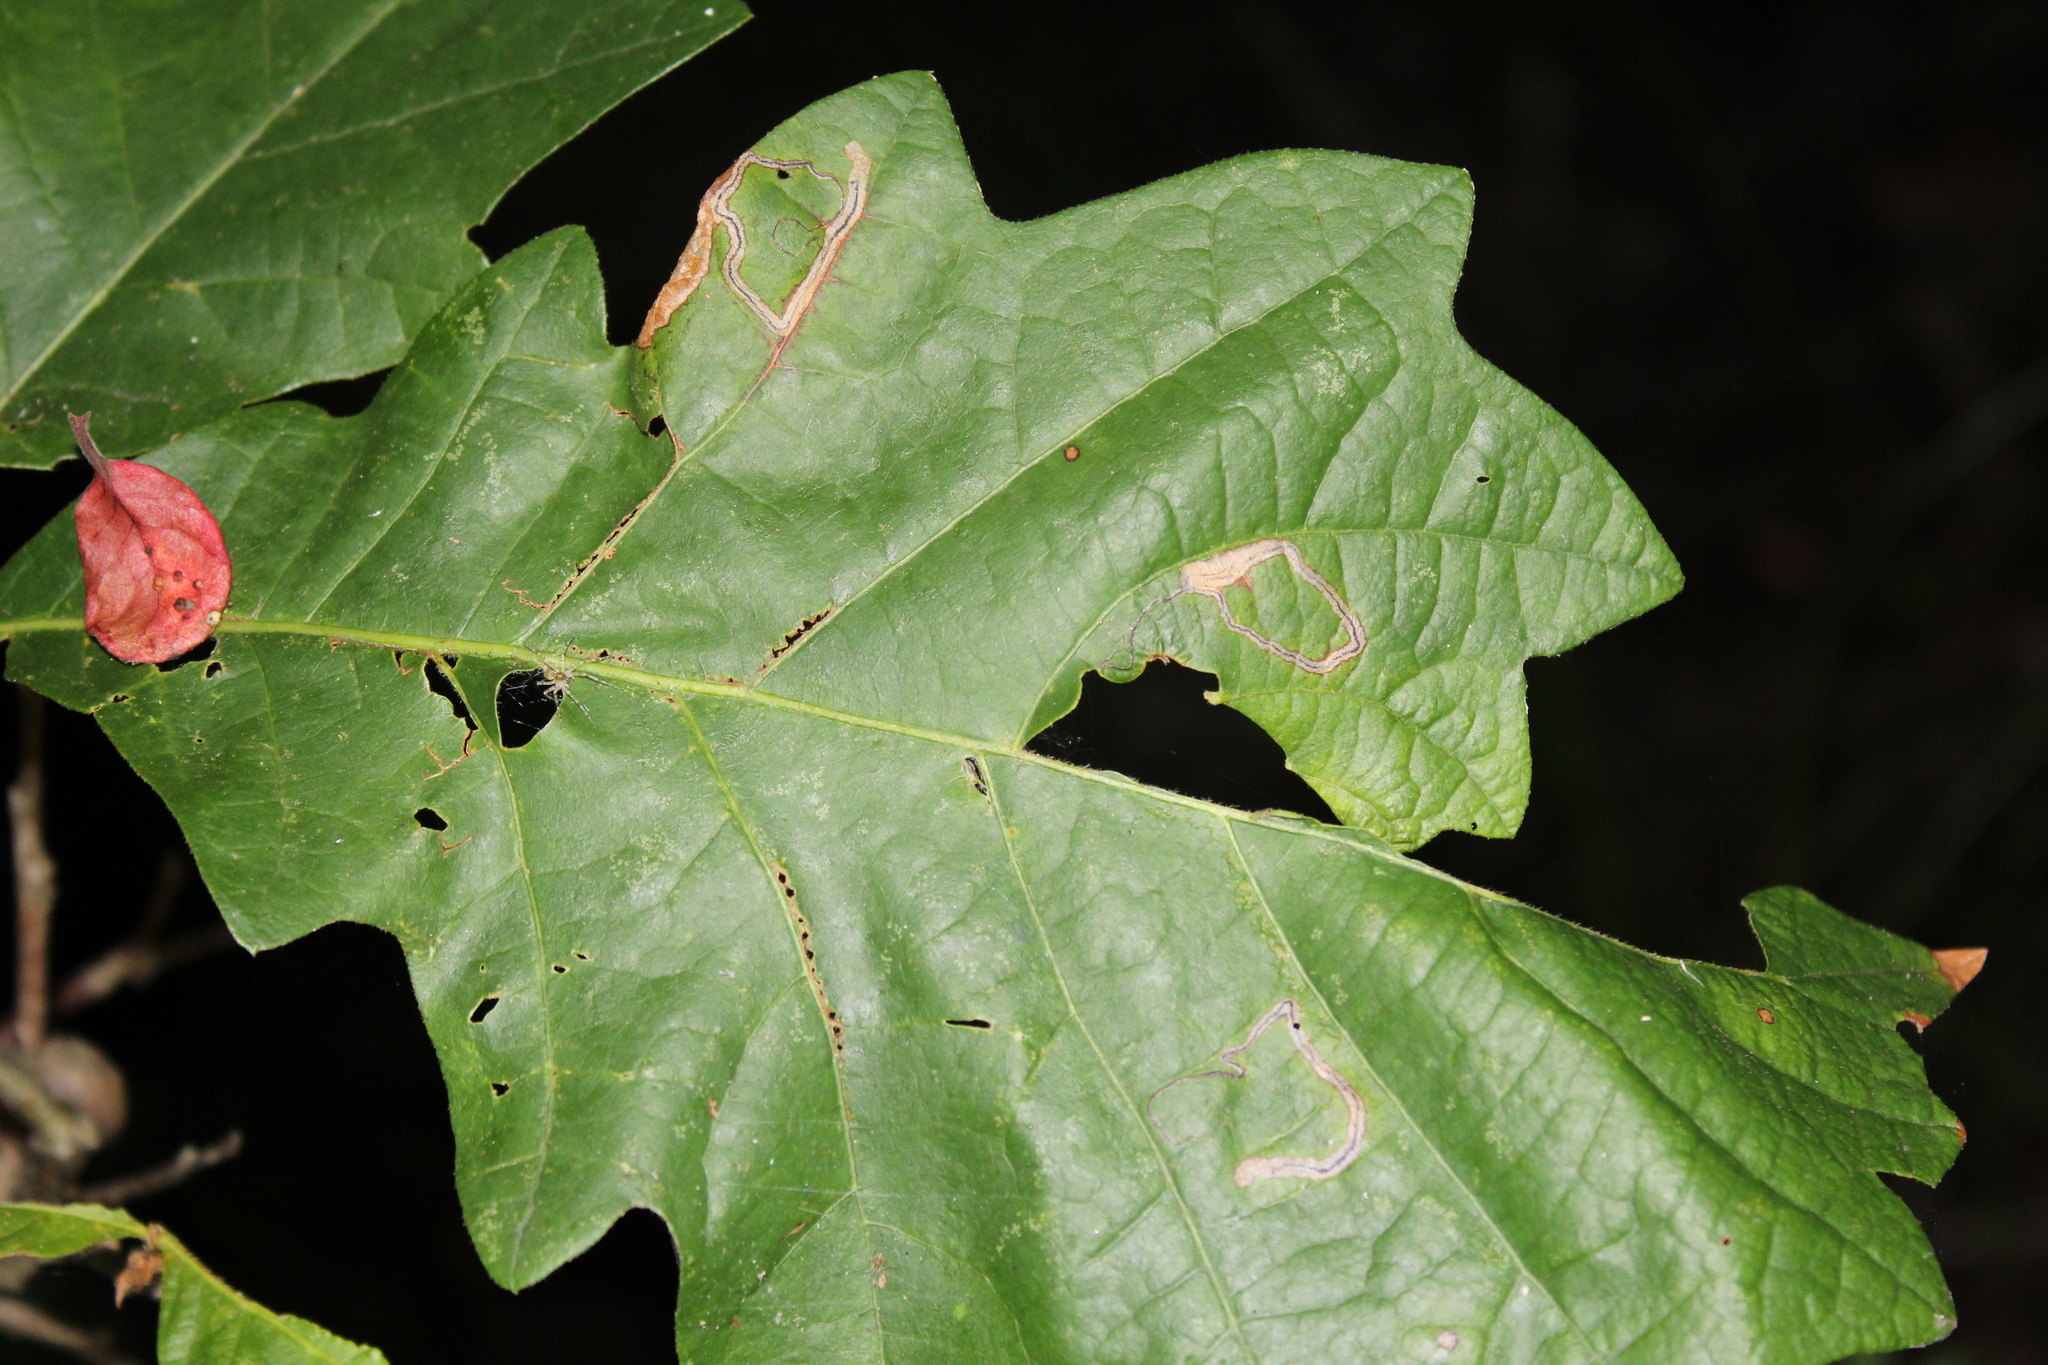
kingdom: Animalia
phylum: Arthropoda
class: Insecta
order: Lepidoptera
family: Nepticulidae
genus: Stigmella
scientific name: Stigmella
